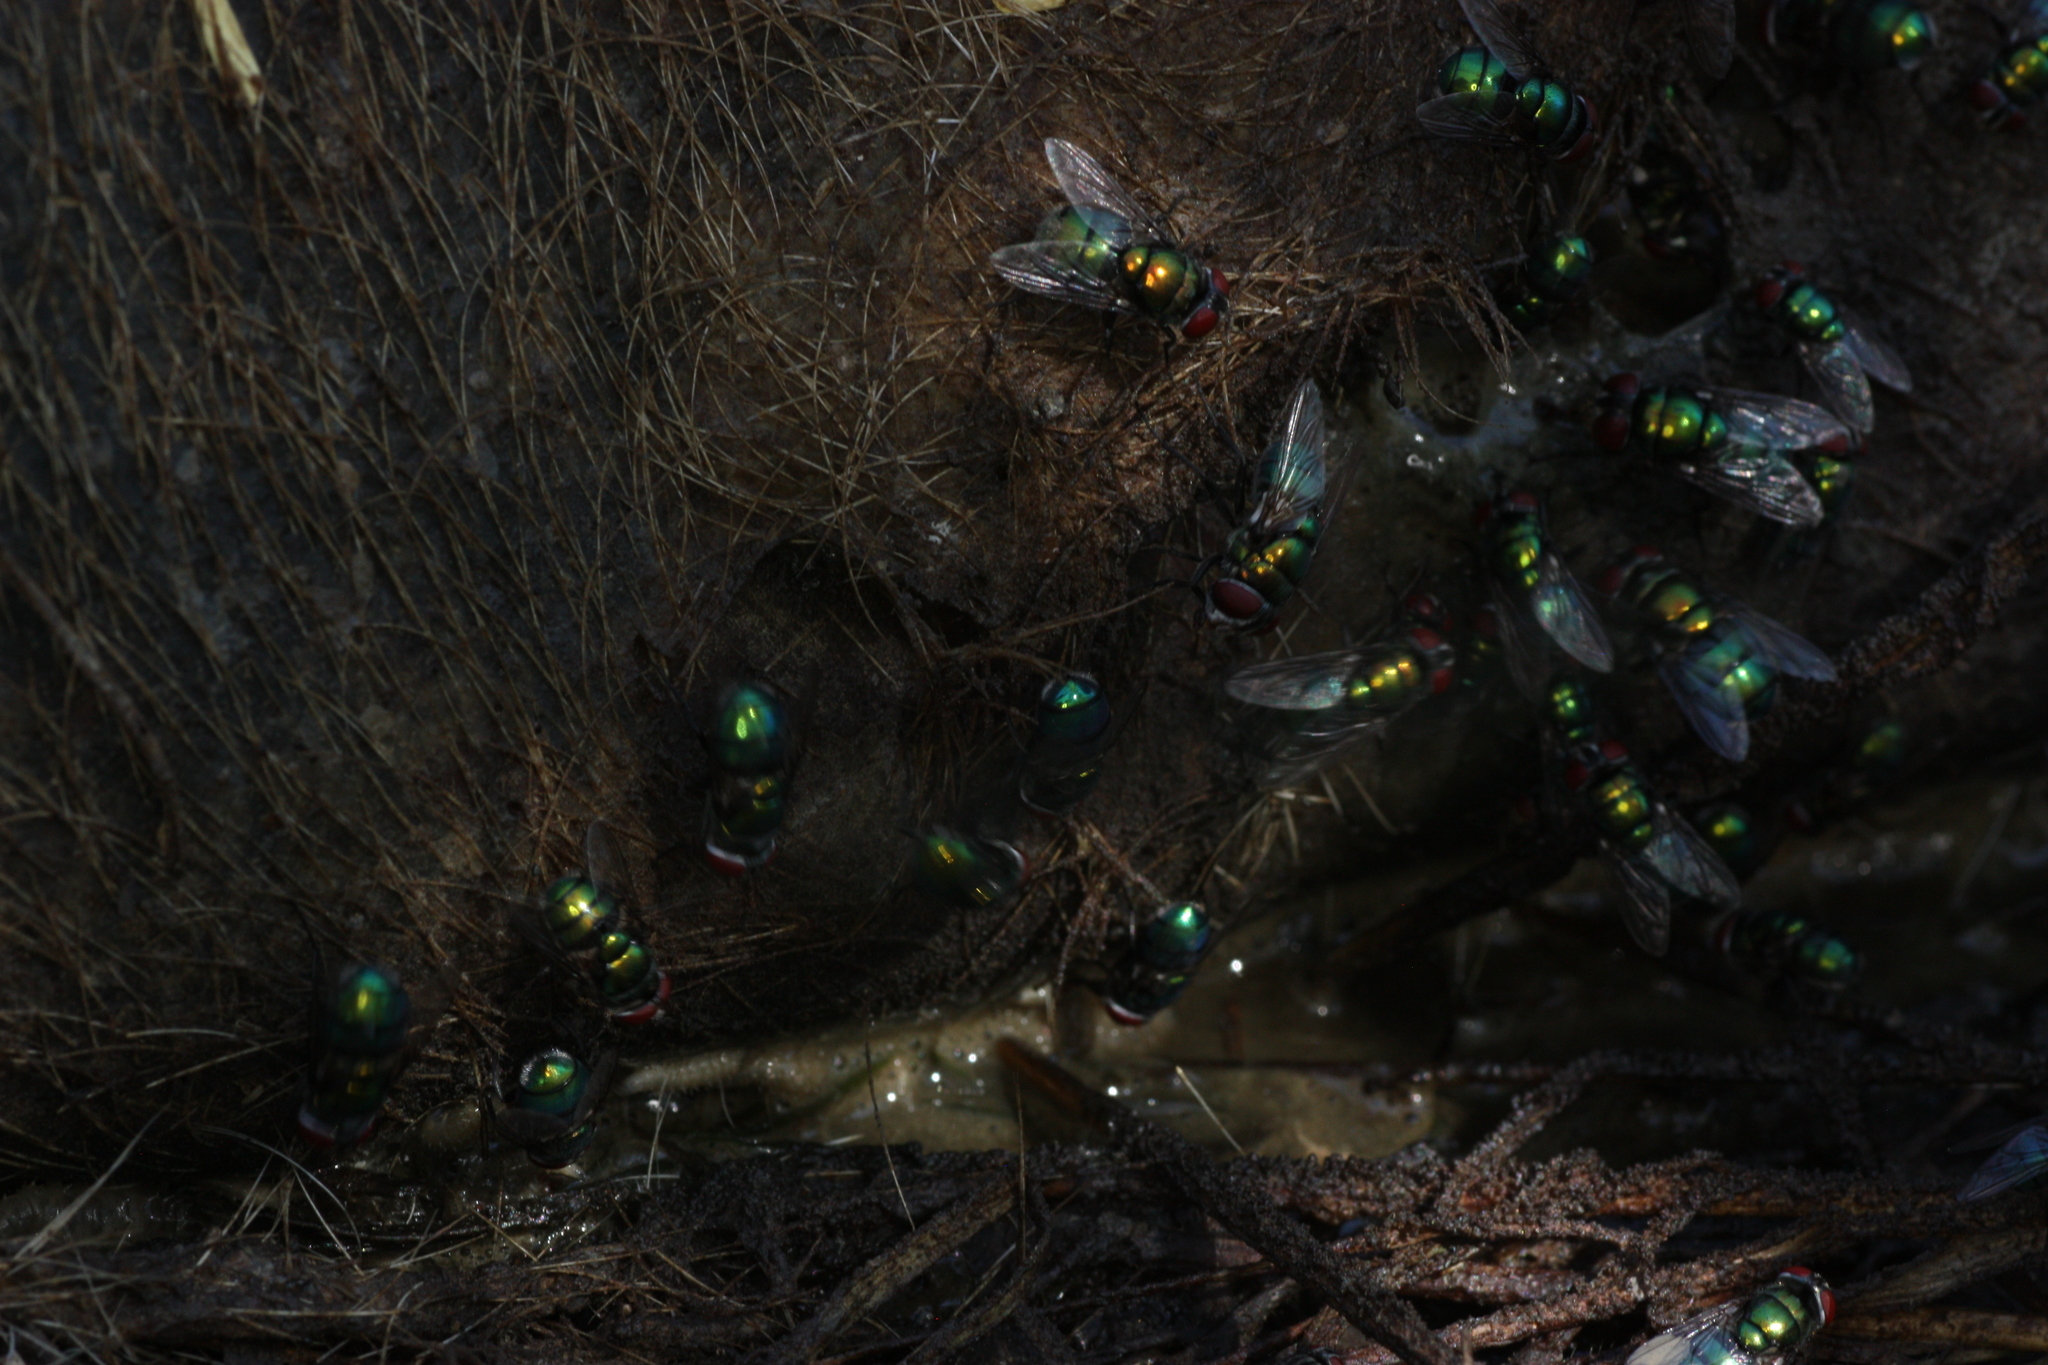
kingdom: Animalia
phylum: Arthropoda
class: Insecta
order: Diptera
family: Calliphoridae
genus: Chrysomya
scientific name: Chrysomya rufifacies
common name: Blow fly
